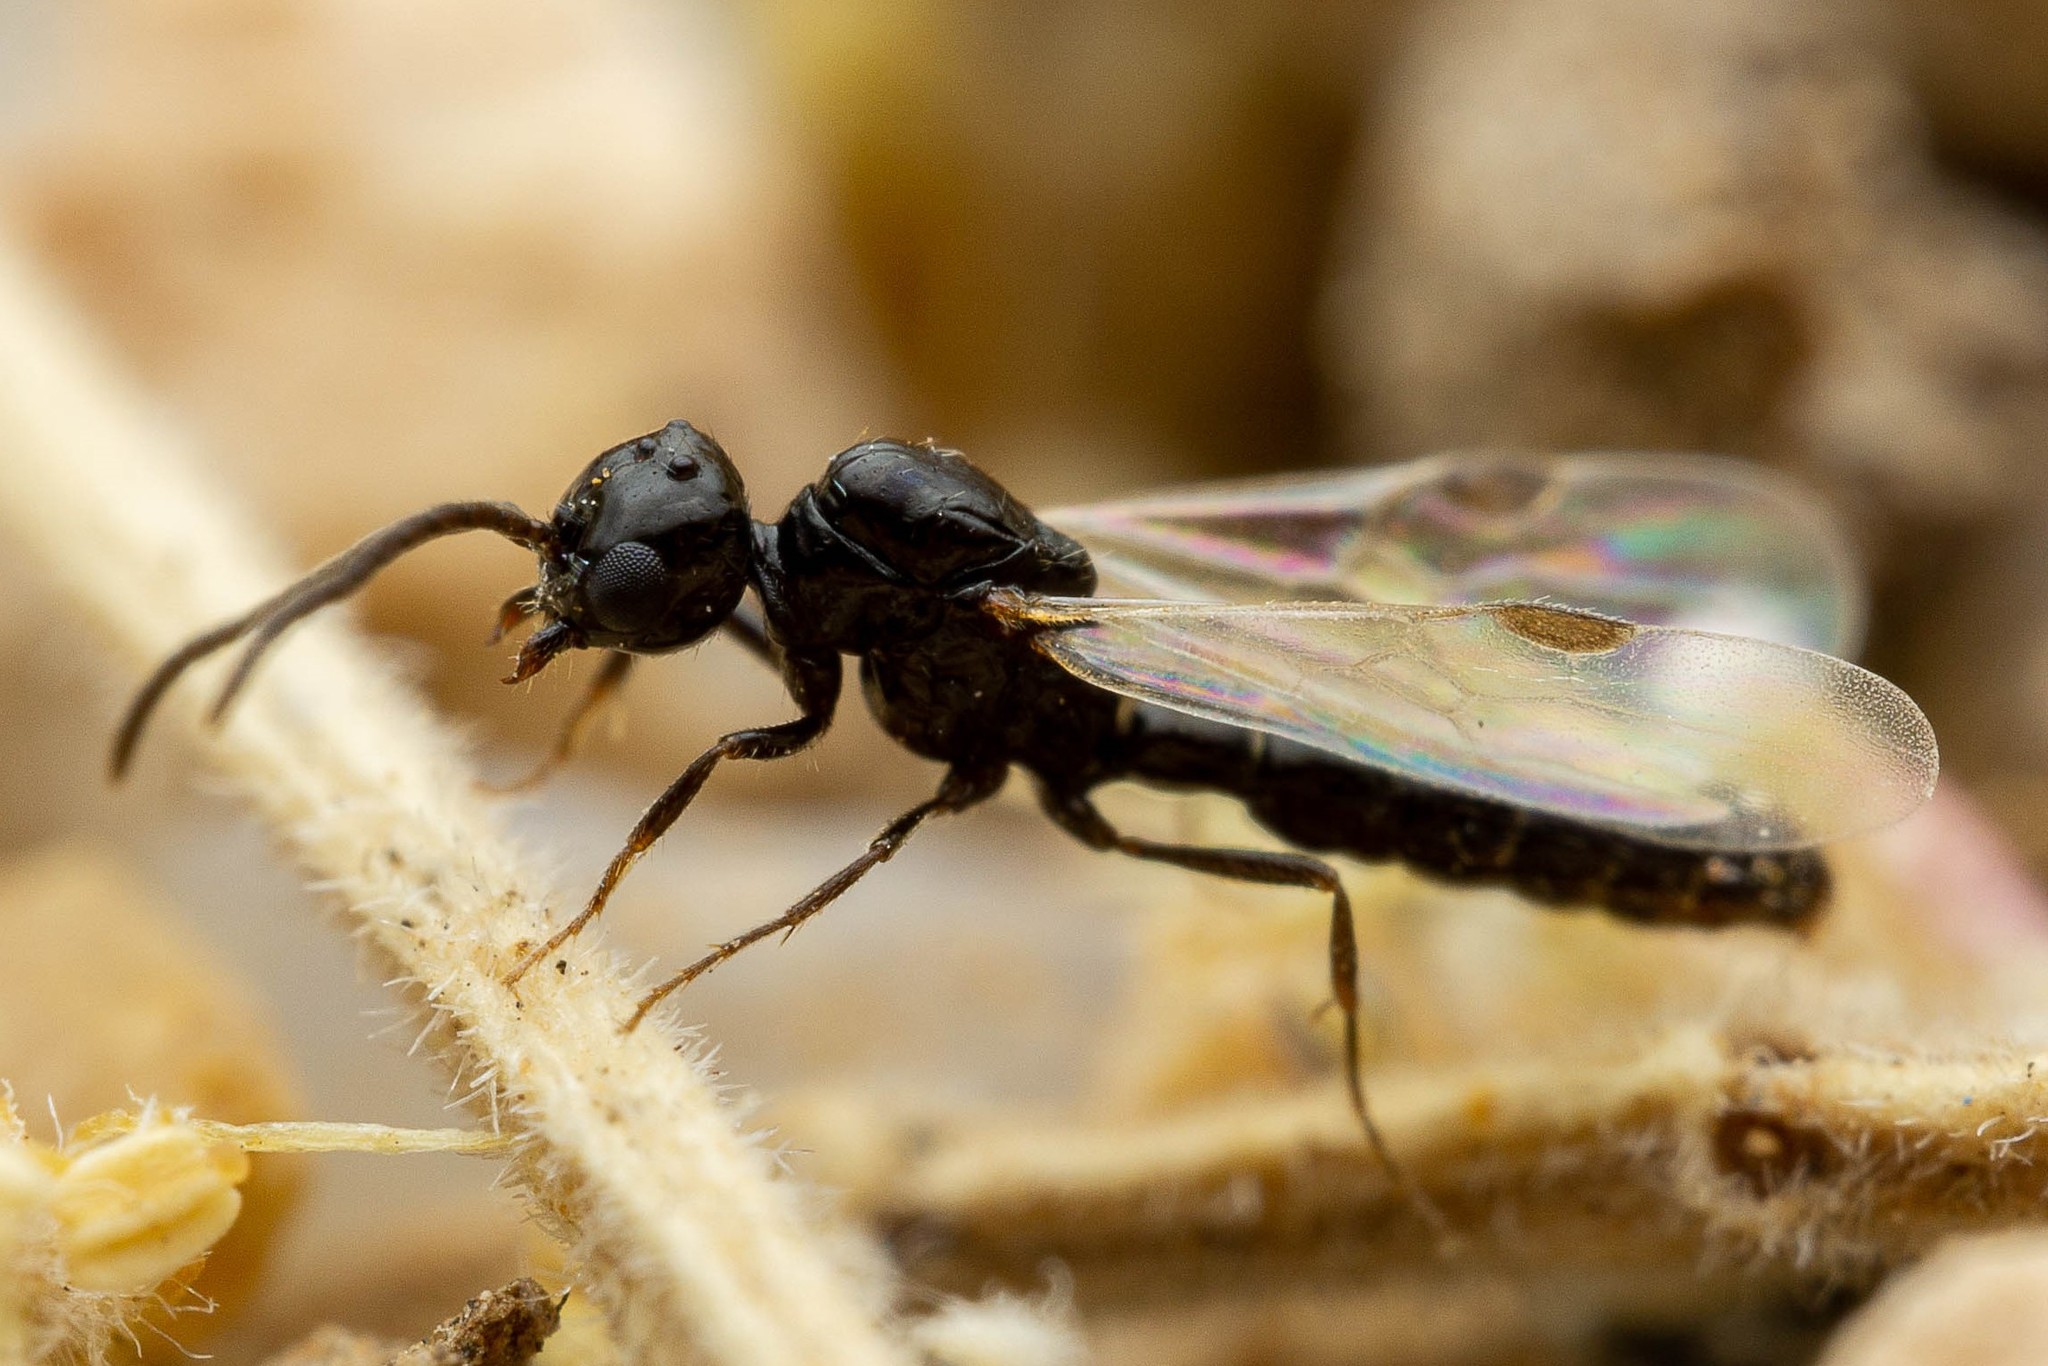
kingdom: Animalia
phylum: Arthropoda
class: Insecta
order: Hymenoptera
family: Formicidae
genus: Acanthostichus
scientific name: Acanthostichus
